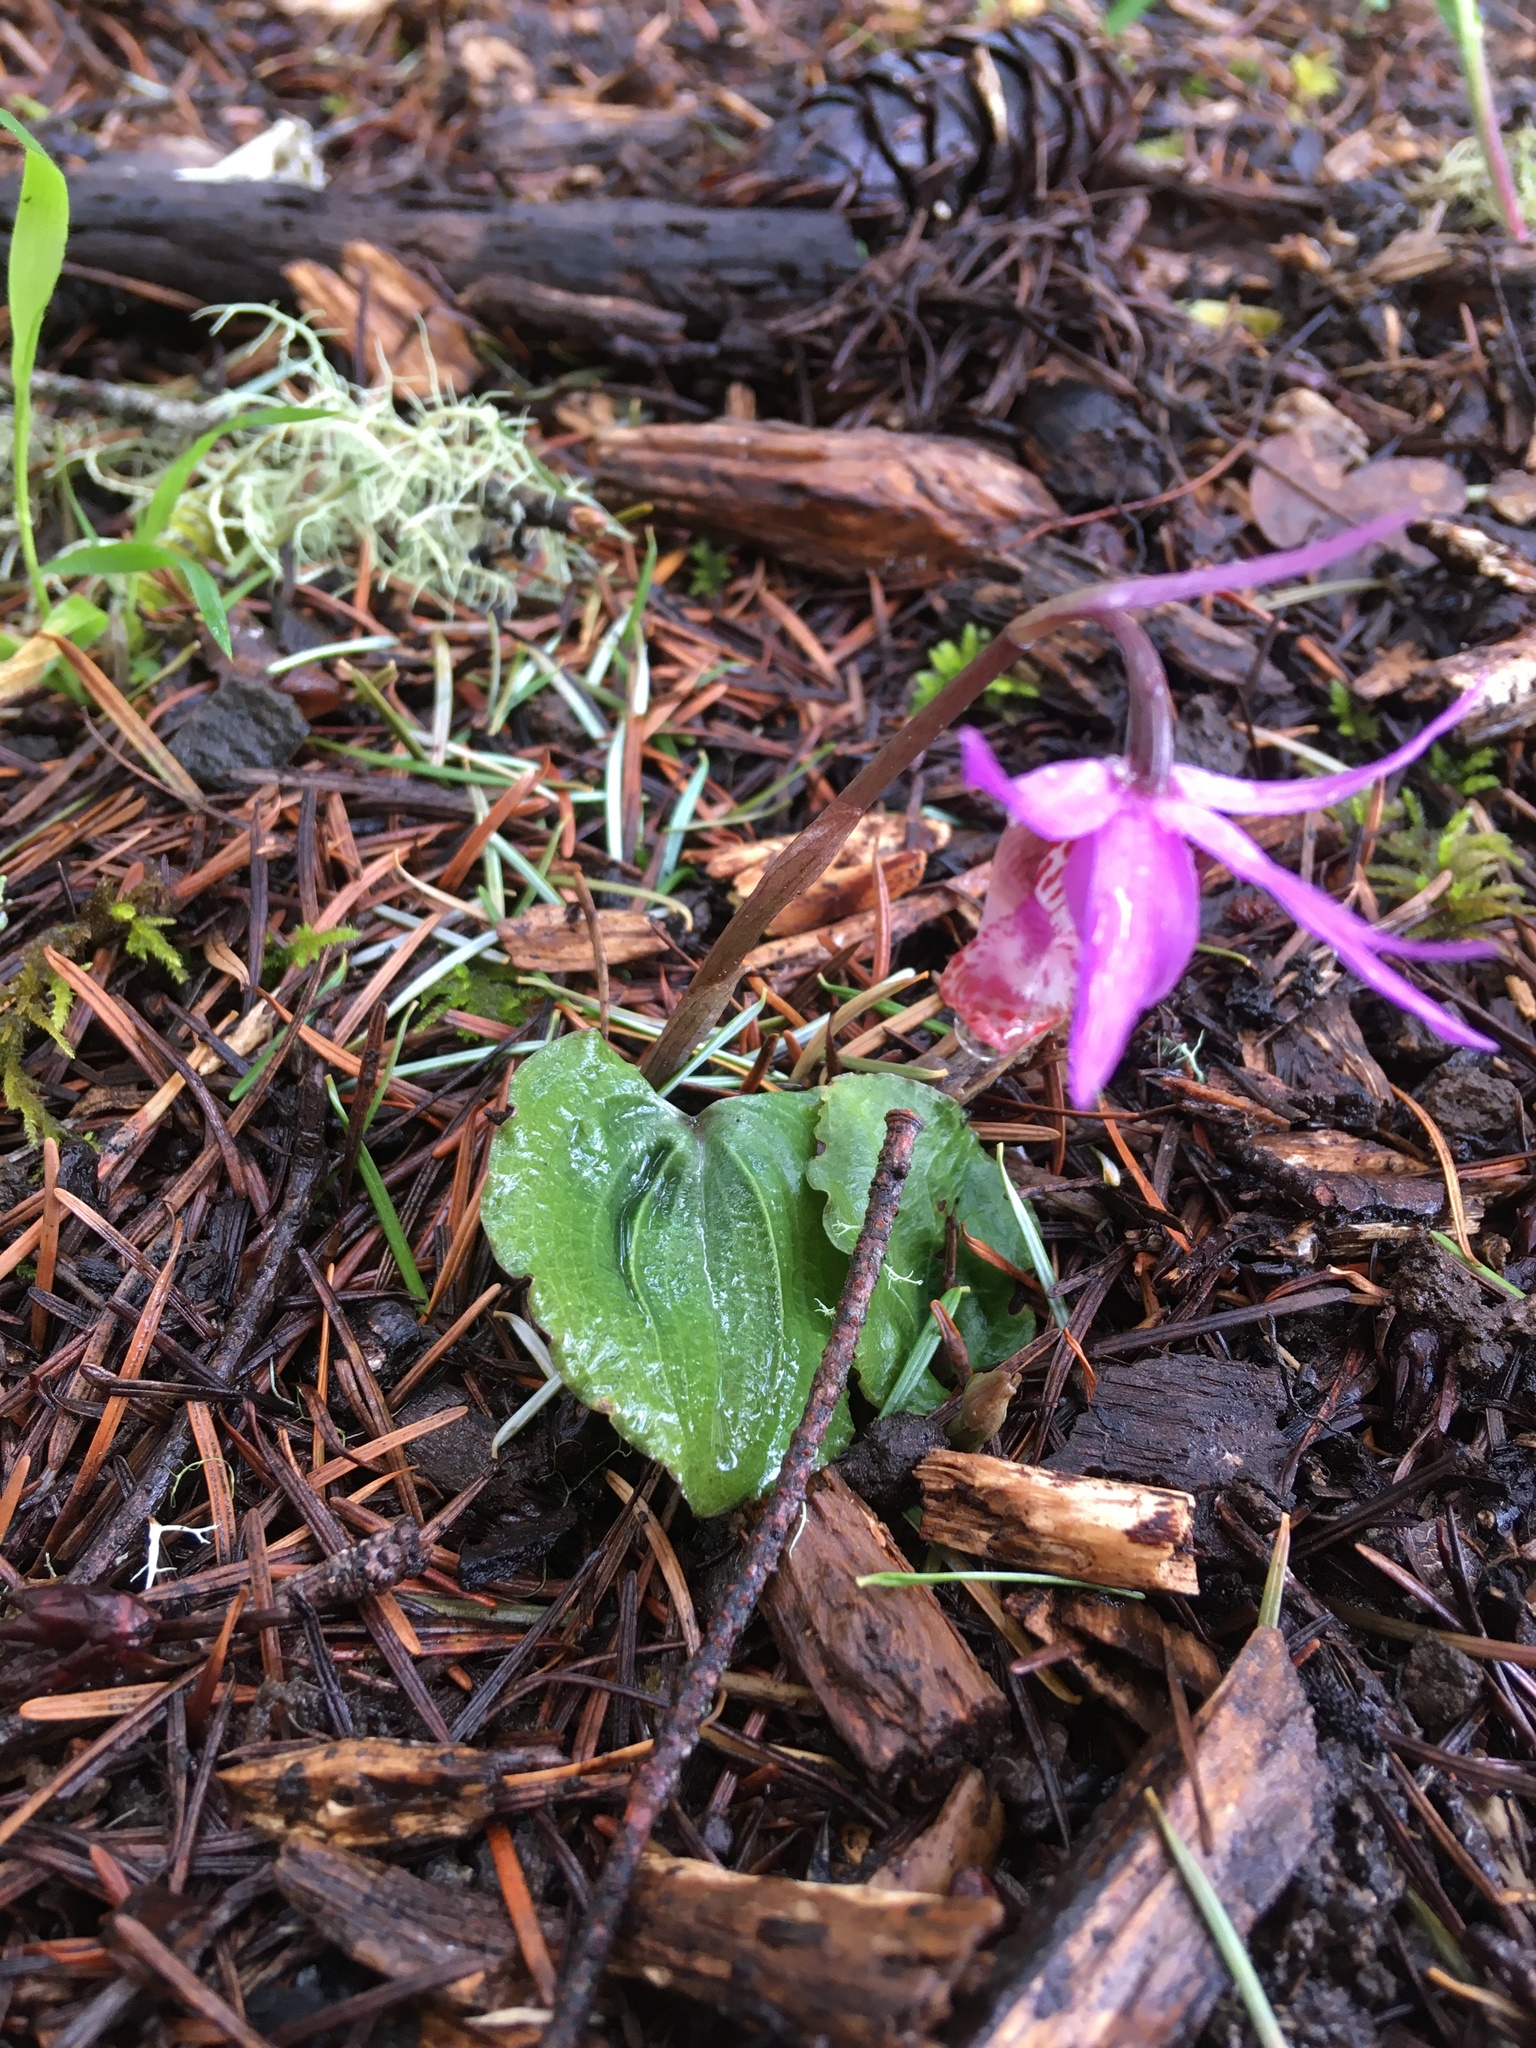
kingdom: Plantae
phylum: Tracheophyta
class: Liliopsida
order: Asparagales
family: Orchidaceae
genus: Calypso
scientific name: Calypso bulbosa
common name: Calypso
